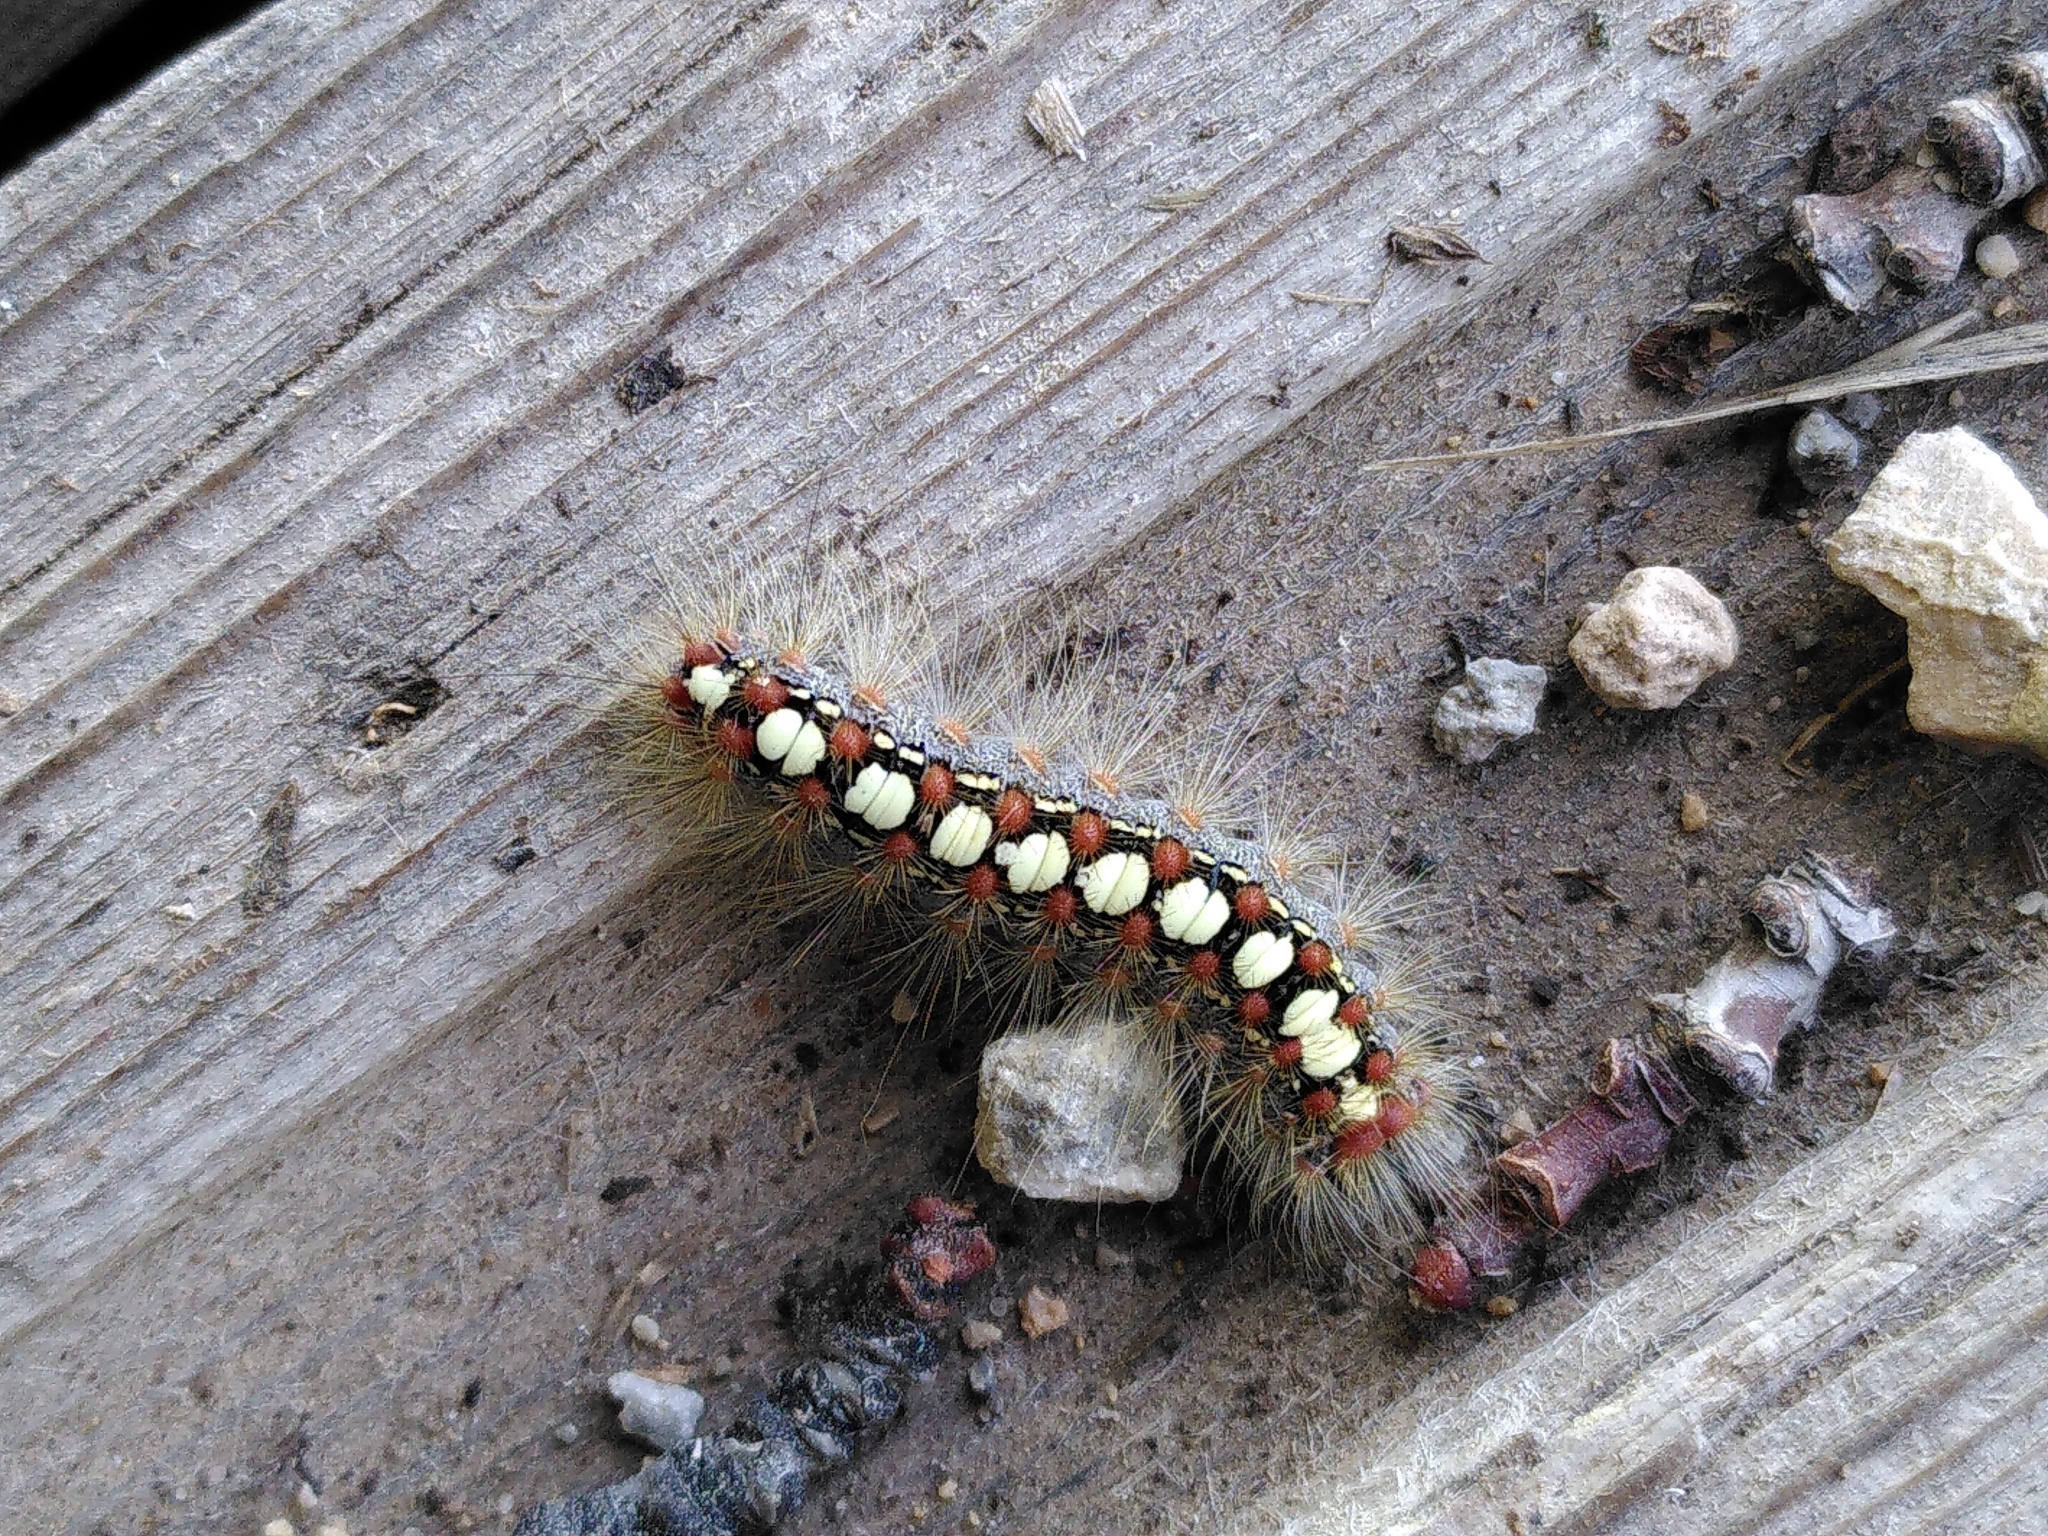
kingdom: Animalia
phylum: Arthropoda
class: Insecta
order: Lepidoptera
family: Erebidae
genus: Leucoma
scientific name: Leucoma salicis
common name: White satin moth
